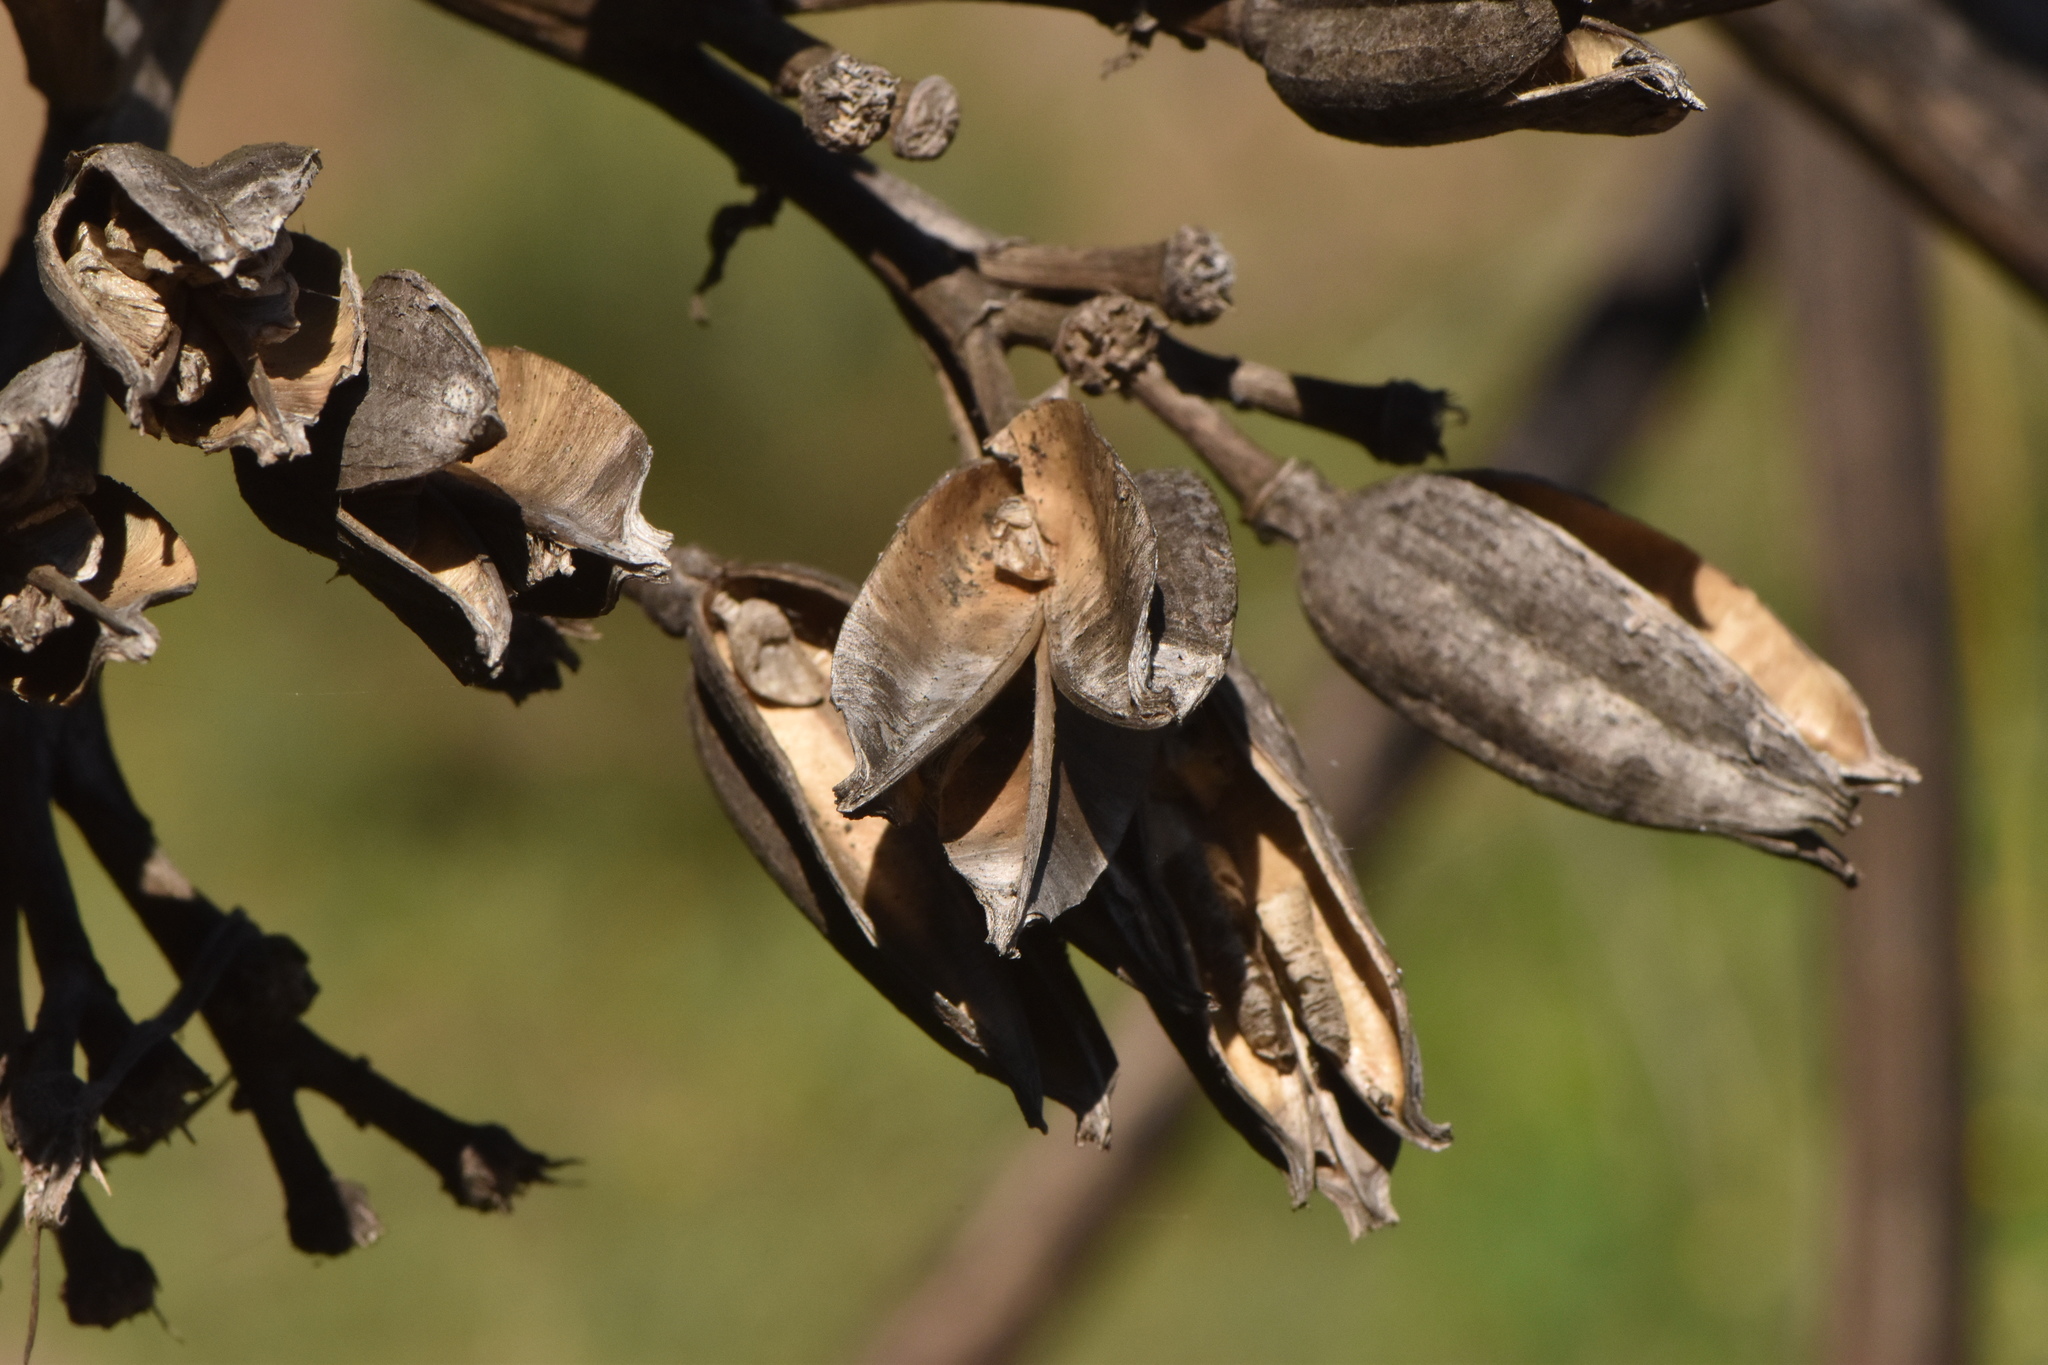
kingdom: Plantae
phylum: Tracheophyta
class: Liliopsida
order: Asparagales
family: Asparagaceae
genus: Agave
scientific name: Agave americana
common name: Centuryplant
